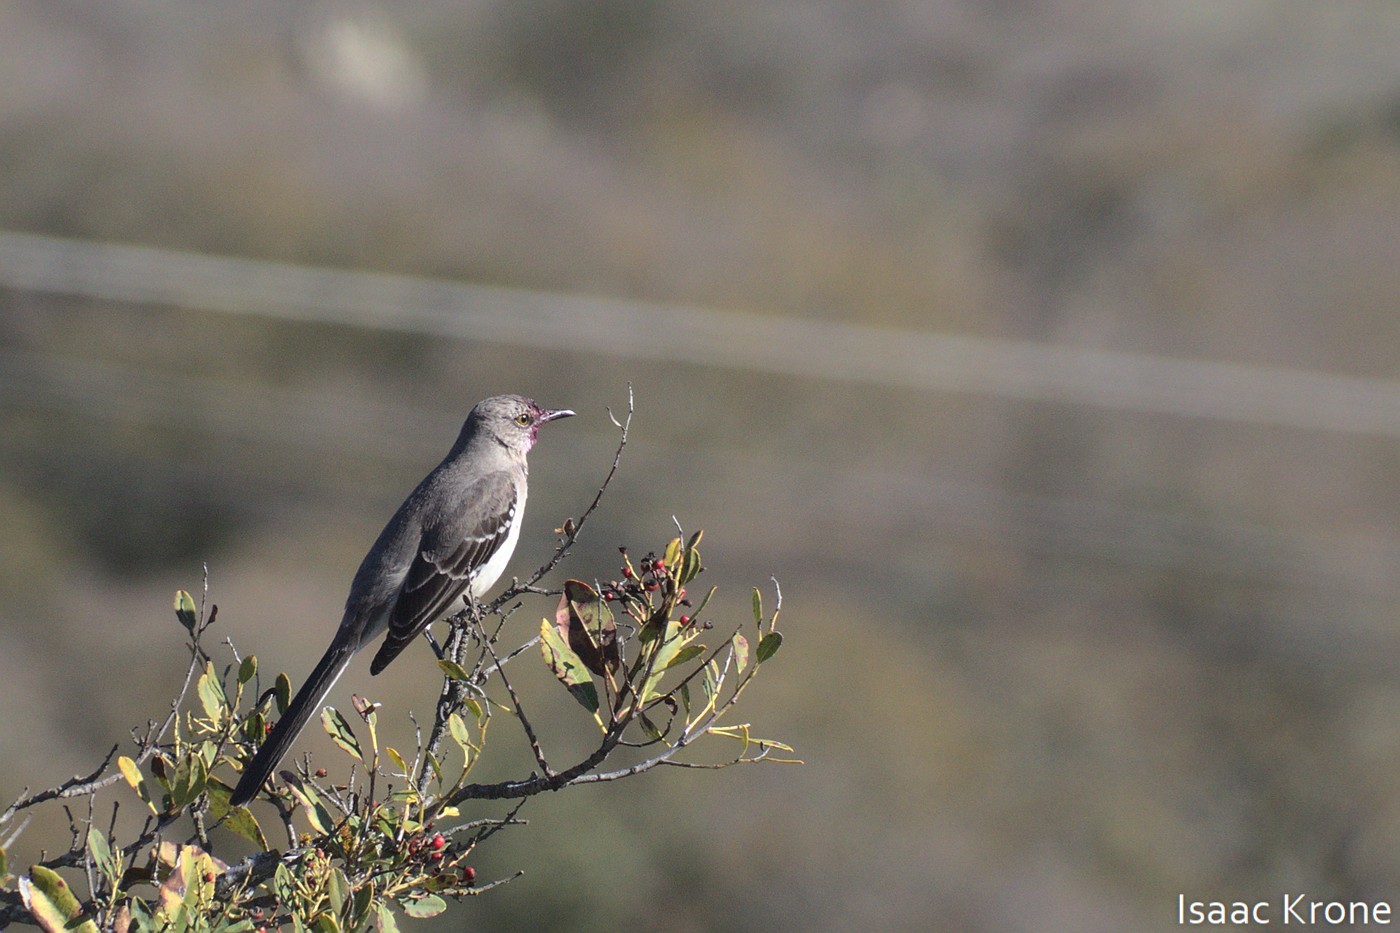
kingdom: Animalia
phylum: Chordata
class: Aves
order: Passeriformes
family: Mimidae
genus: Mimus
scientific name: Mimus polyglottos
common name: Northern mockingbird
